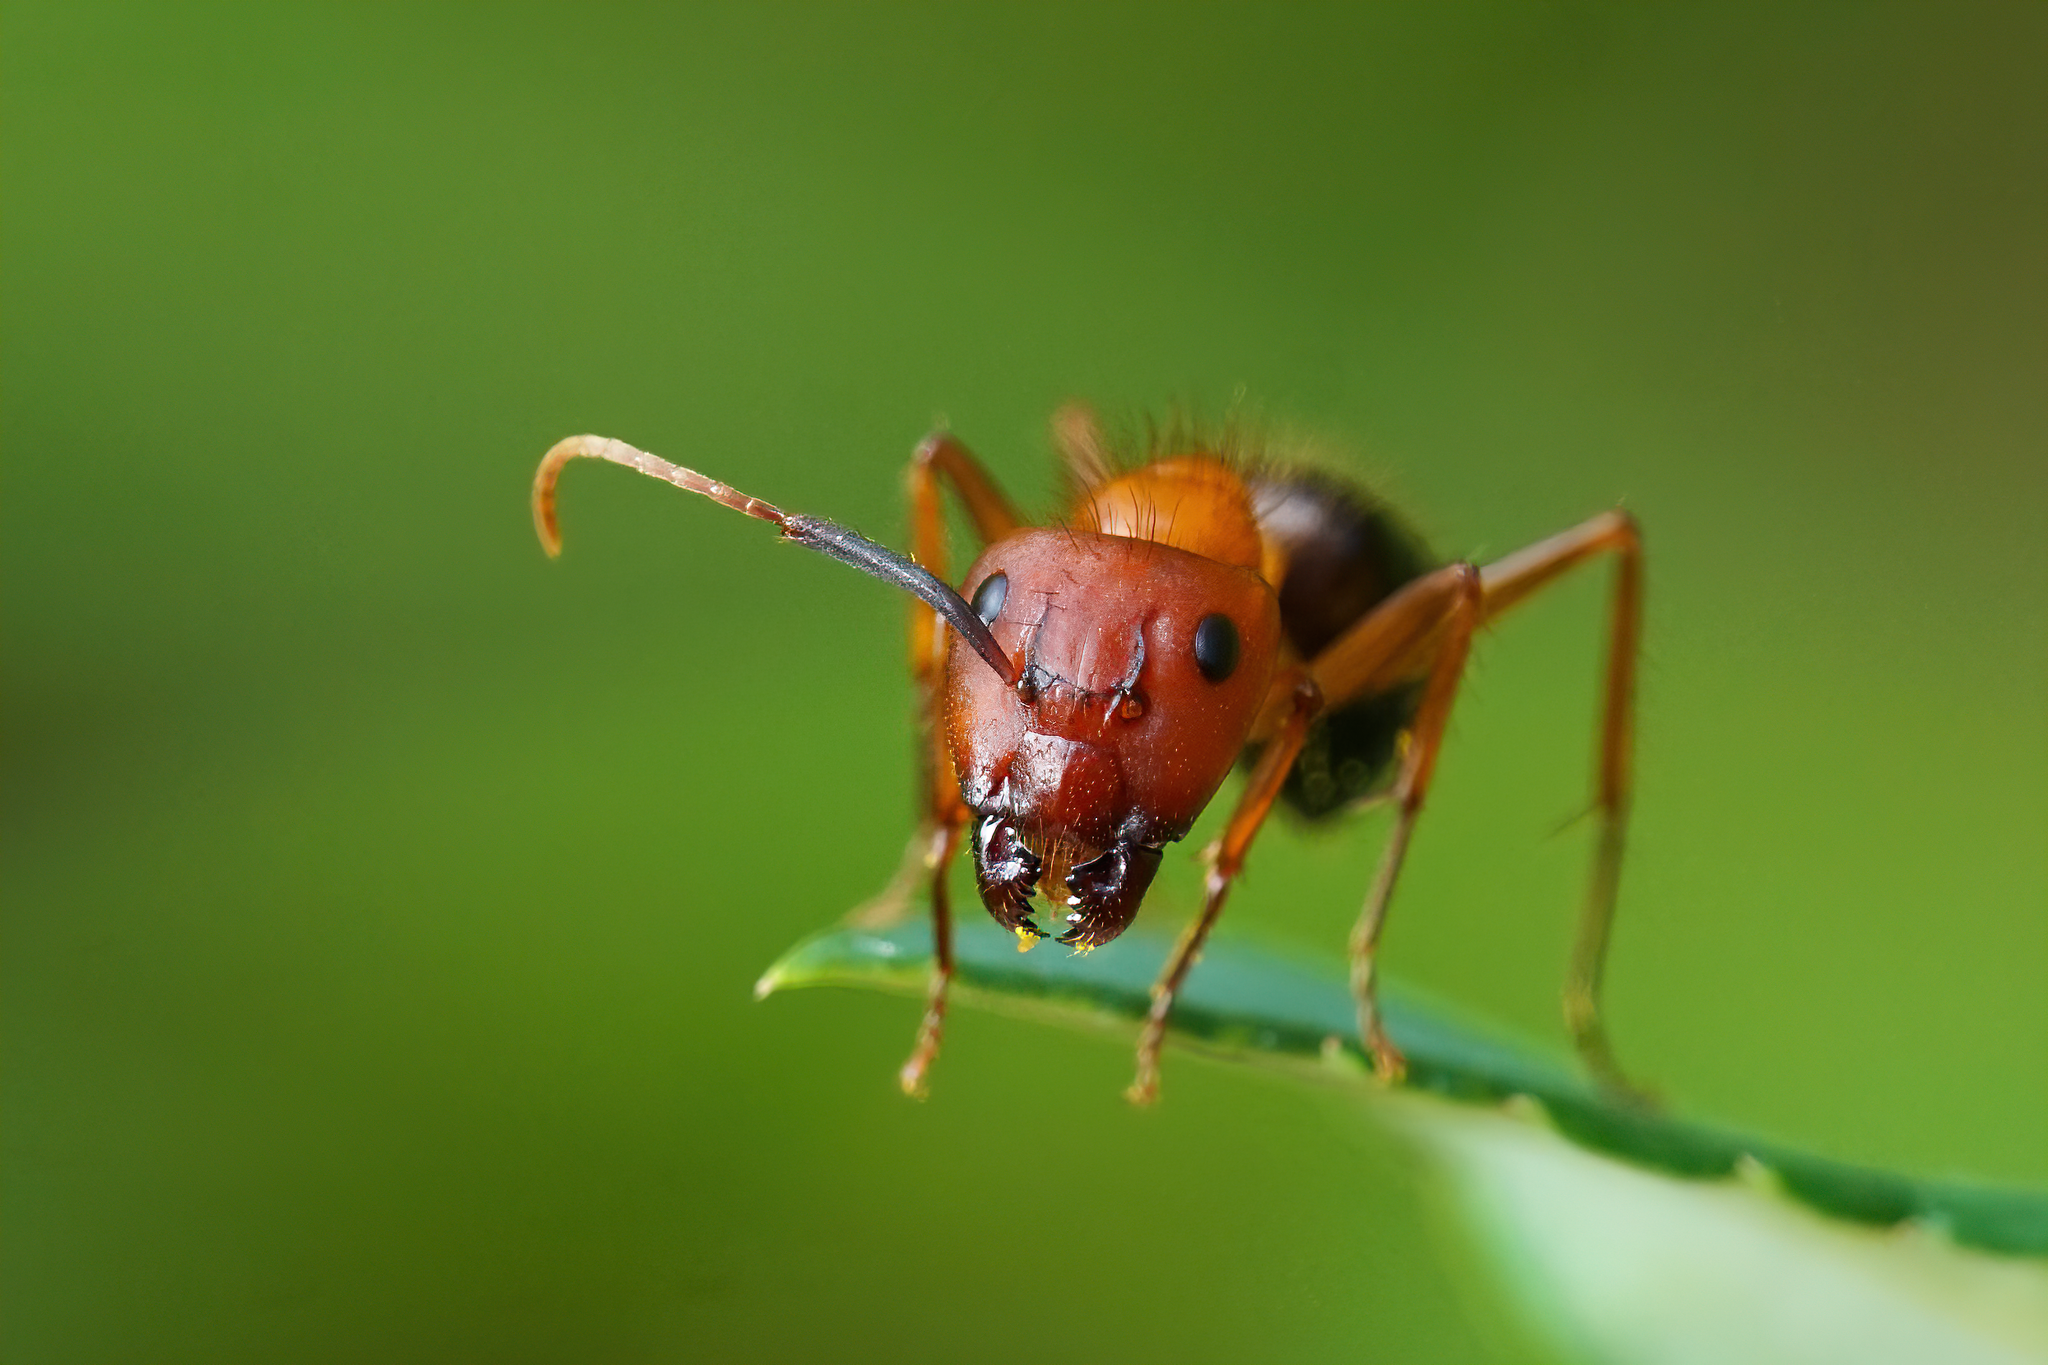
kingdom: Animalia
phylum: Arthropoda
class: Insecta
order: Hymenoptera
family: Formicidae
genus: Camponotus
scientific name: Camponotus floridanus
